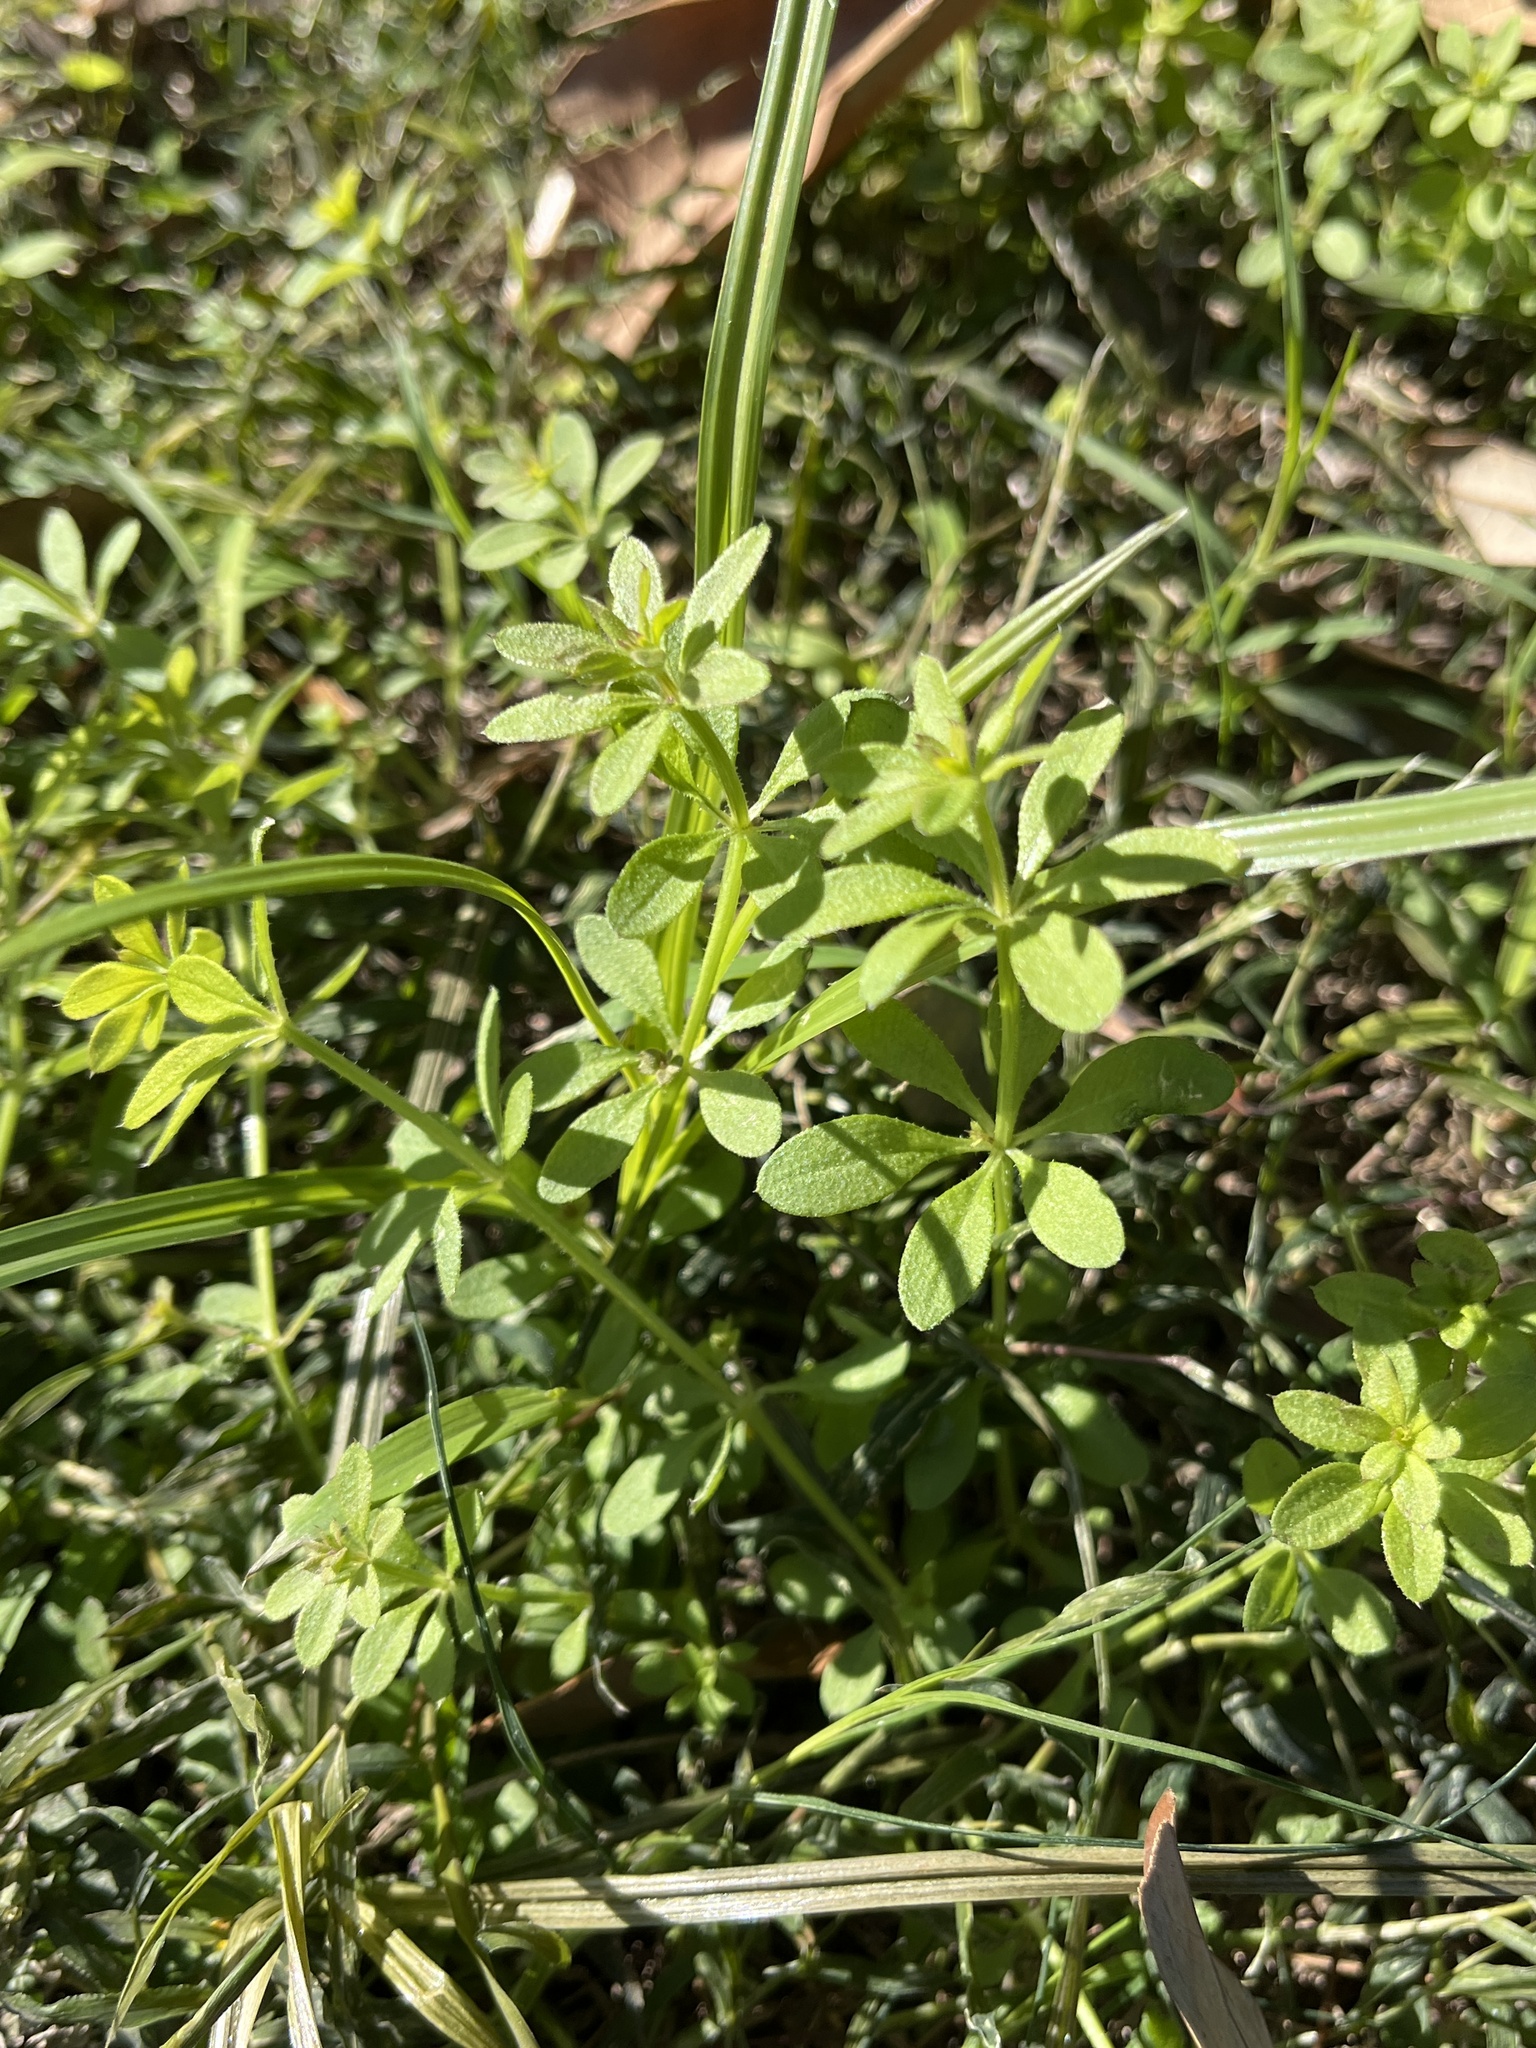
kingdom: Plantae
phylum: Tracheophyta
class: Magnoliopsida
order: Gentianales
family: Rubiaceae
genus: Galium
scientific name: Galium aparine
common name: Cleavers
